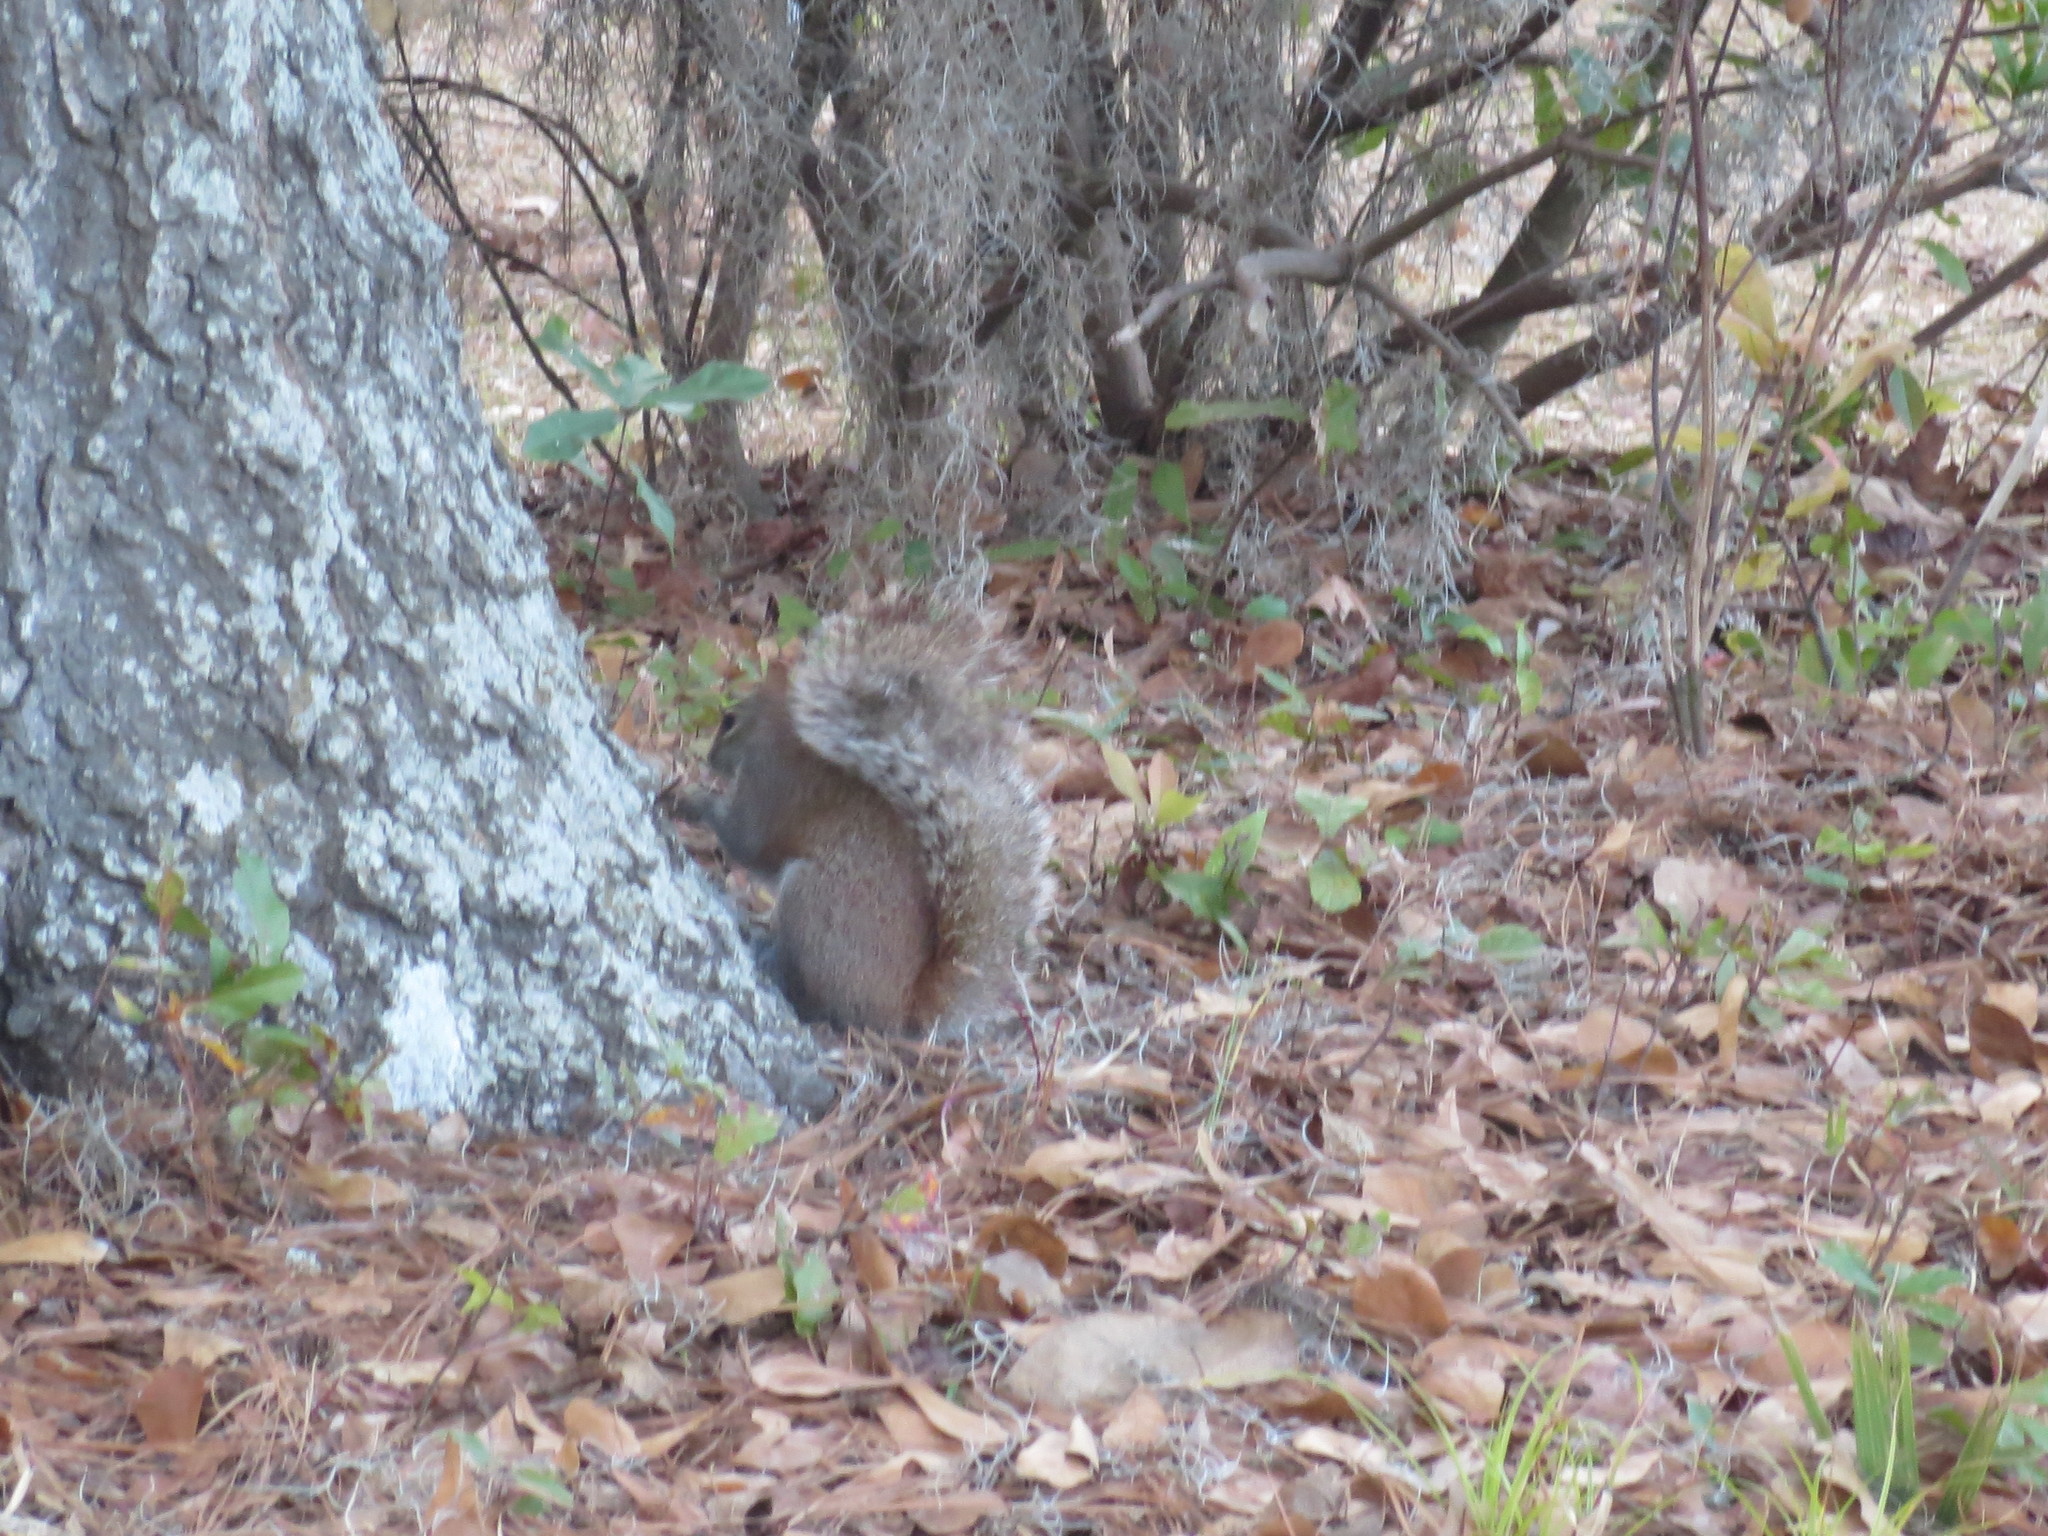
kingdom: Animalia
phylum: Chordata
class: Mammalia
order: Rodentia
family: Sciuridae
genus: Sciurus
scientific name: Sciurus carolinensis
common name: Eastern gray squirrel
